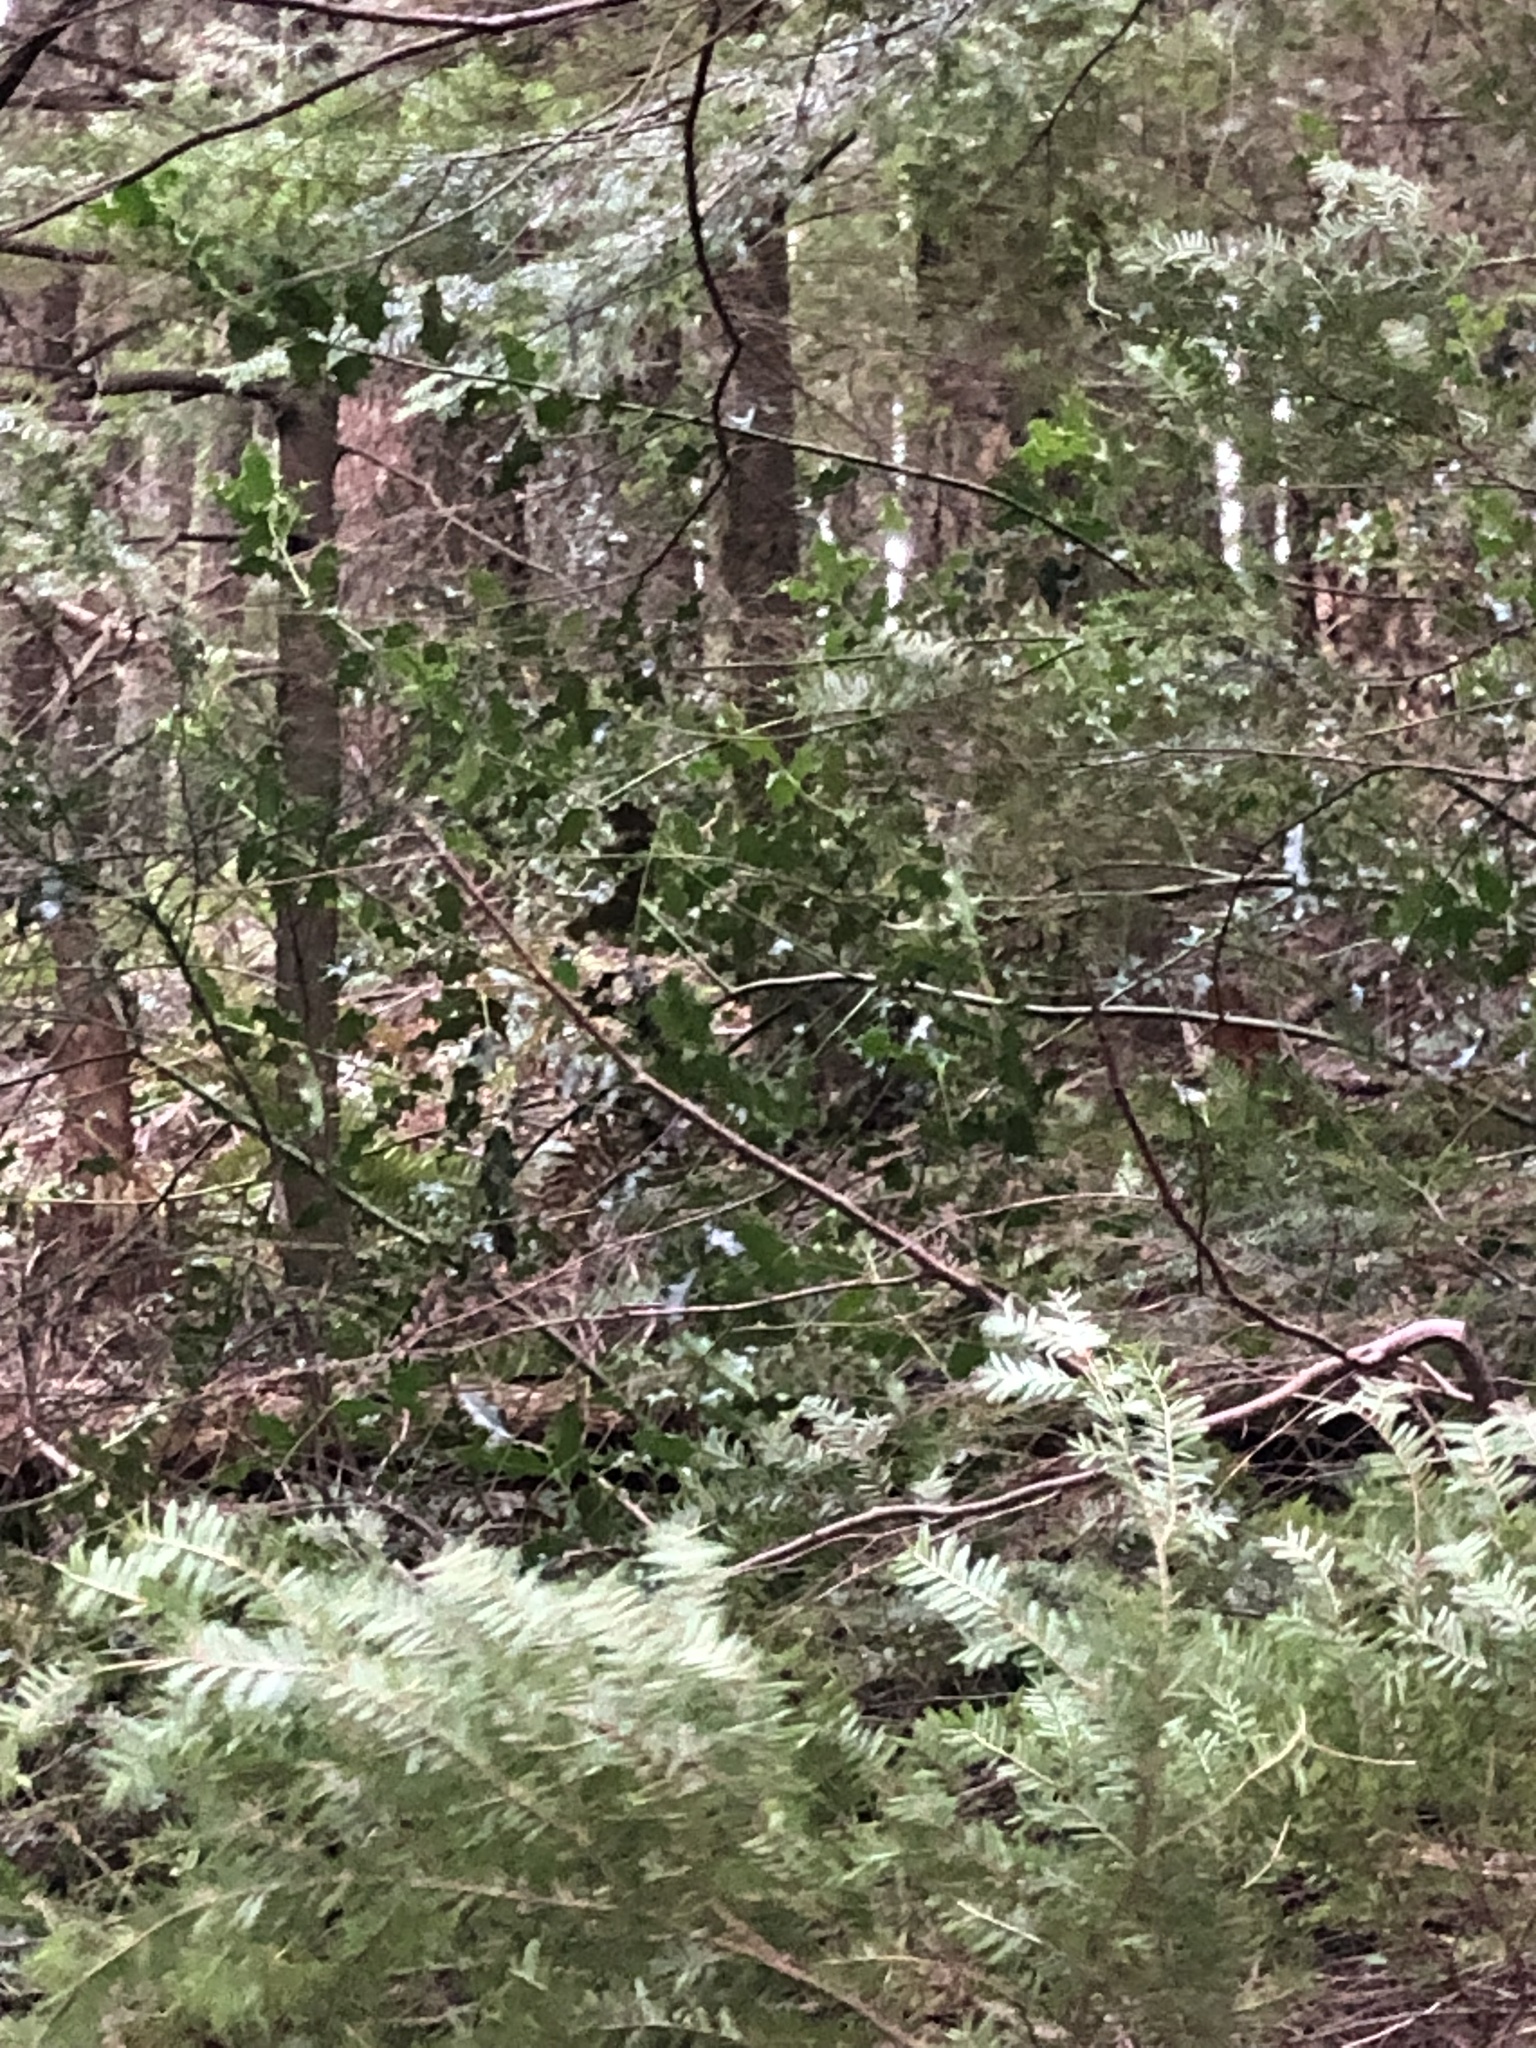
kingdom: Plantae
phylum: Tracheophyta
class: Magnoliopsida
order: Aquifoliales
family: Aquifoliaceae
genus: Ilex
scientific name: Ilex aquifolium
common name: English holly
